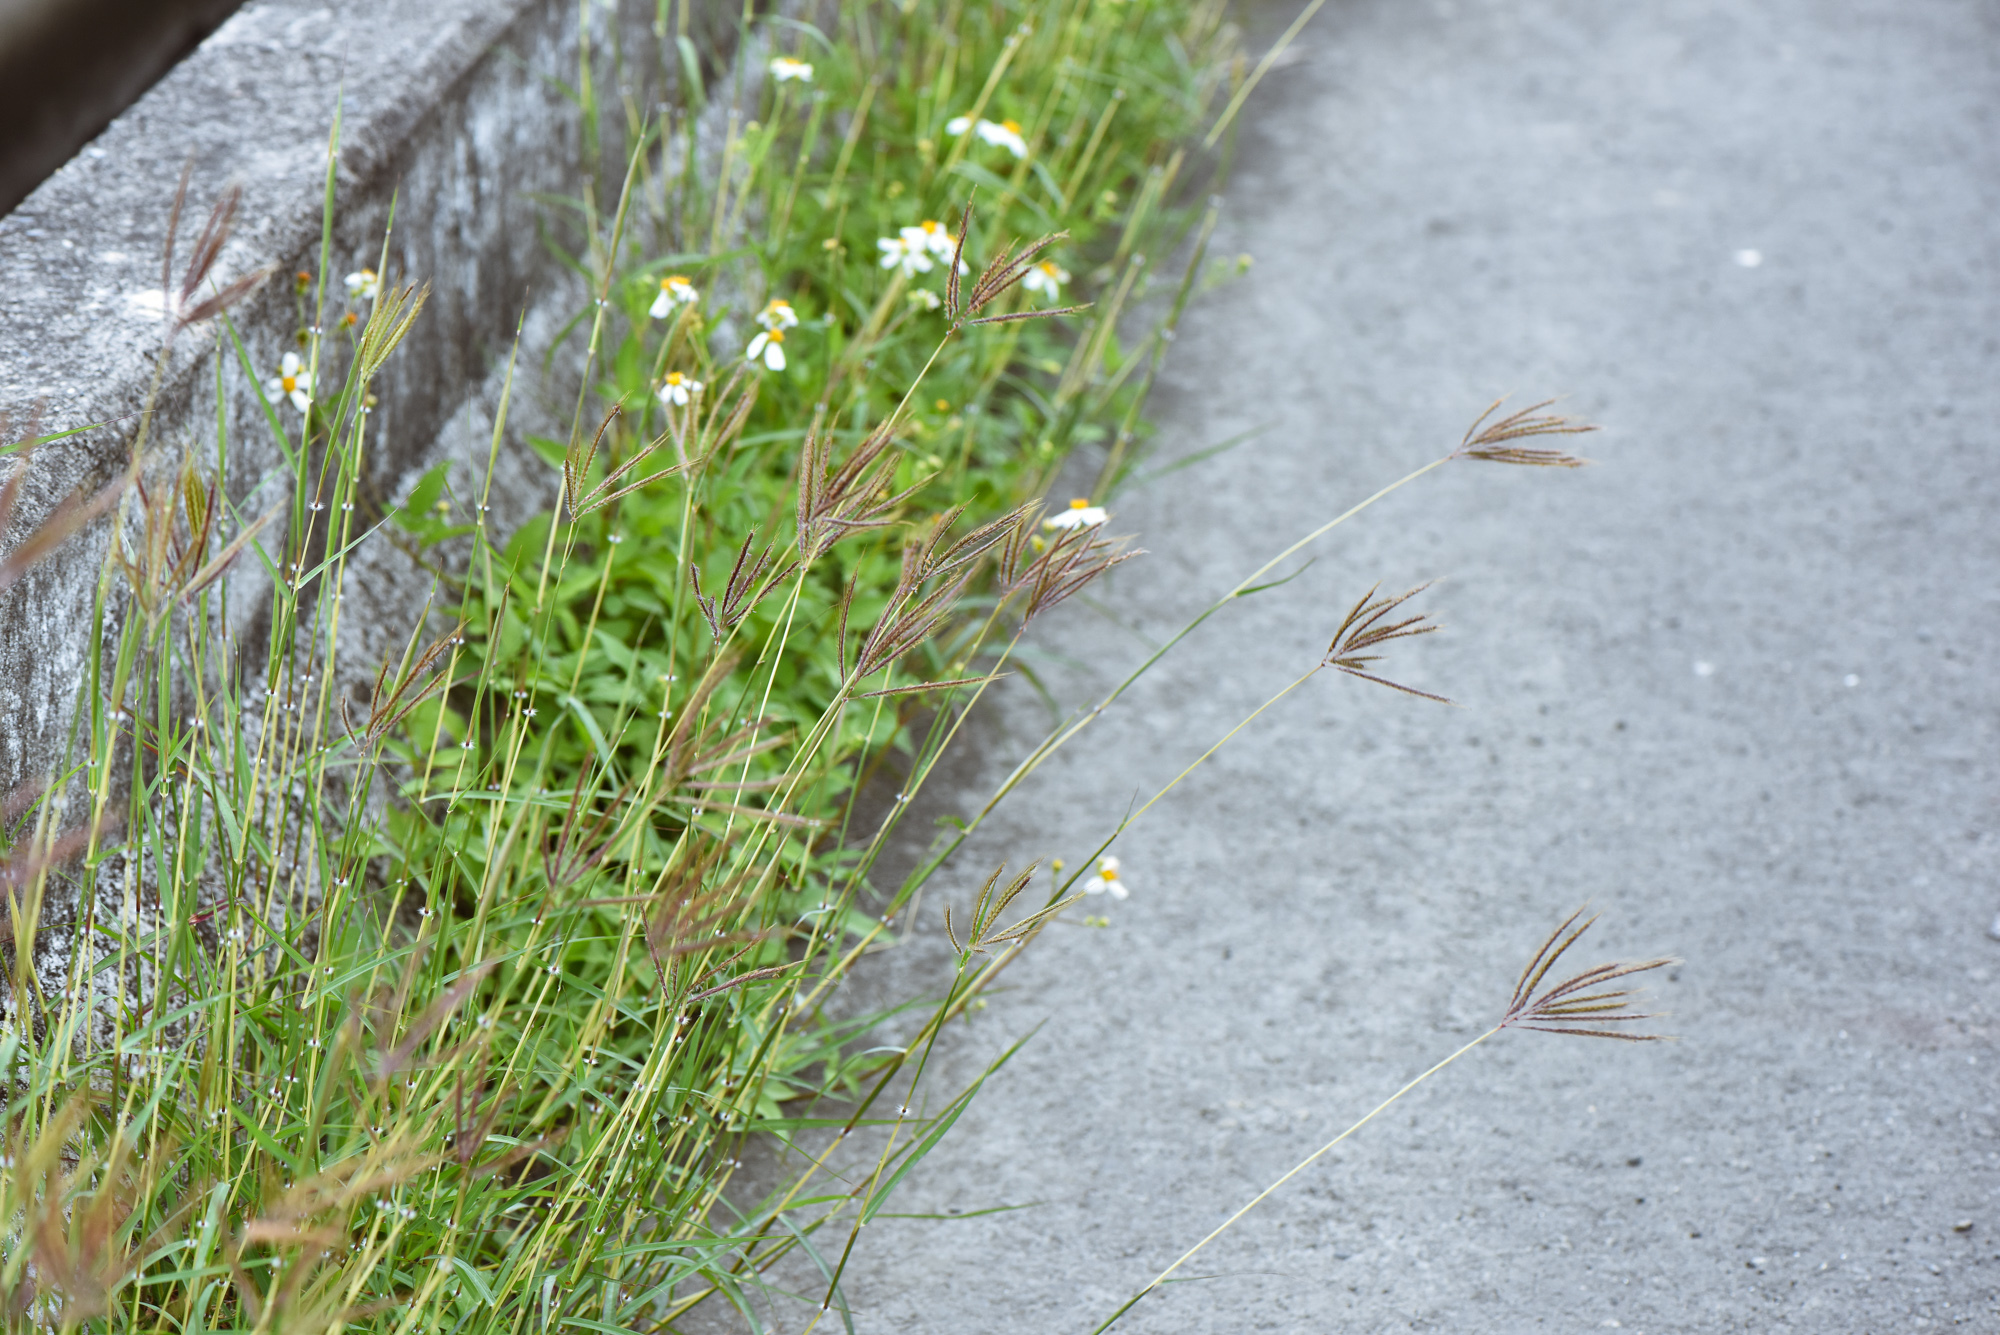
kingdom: Plantae
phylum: Tracheophyta
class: Liliopsida
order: Poales
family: Poaceae
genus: Dichanthium
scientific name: Dichanthium annulatum
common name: Kleberg's bluestem
